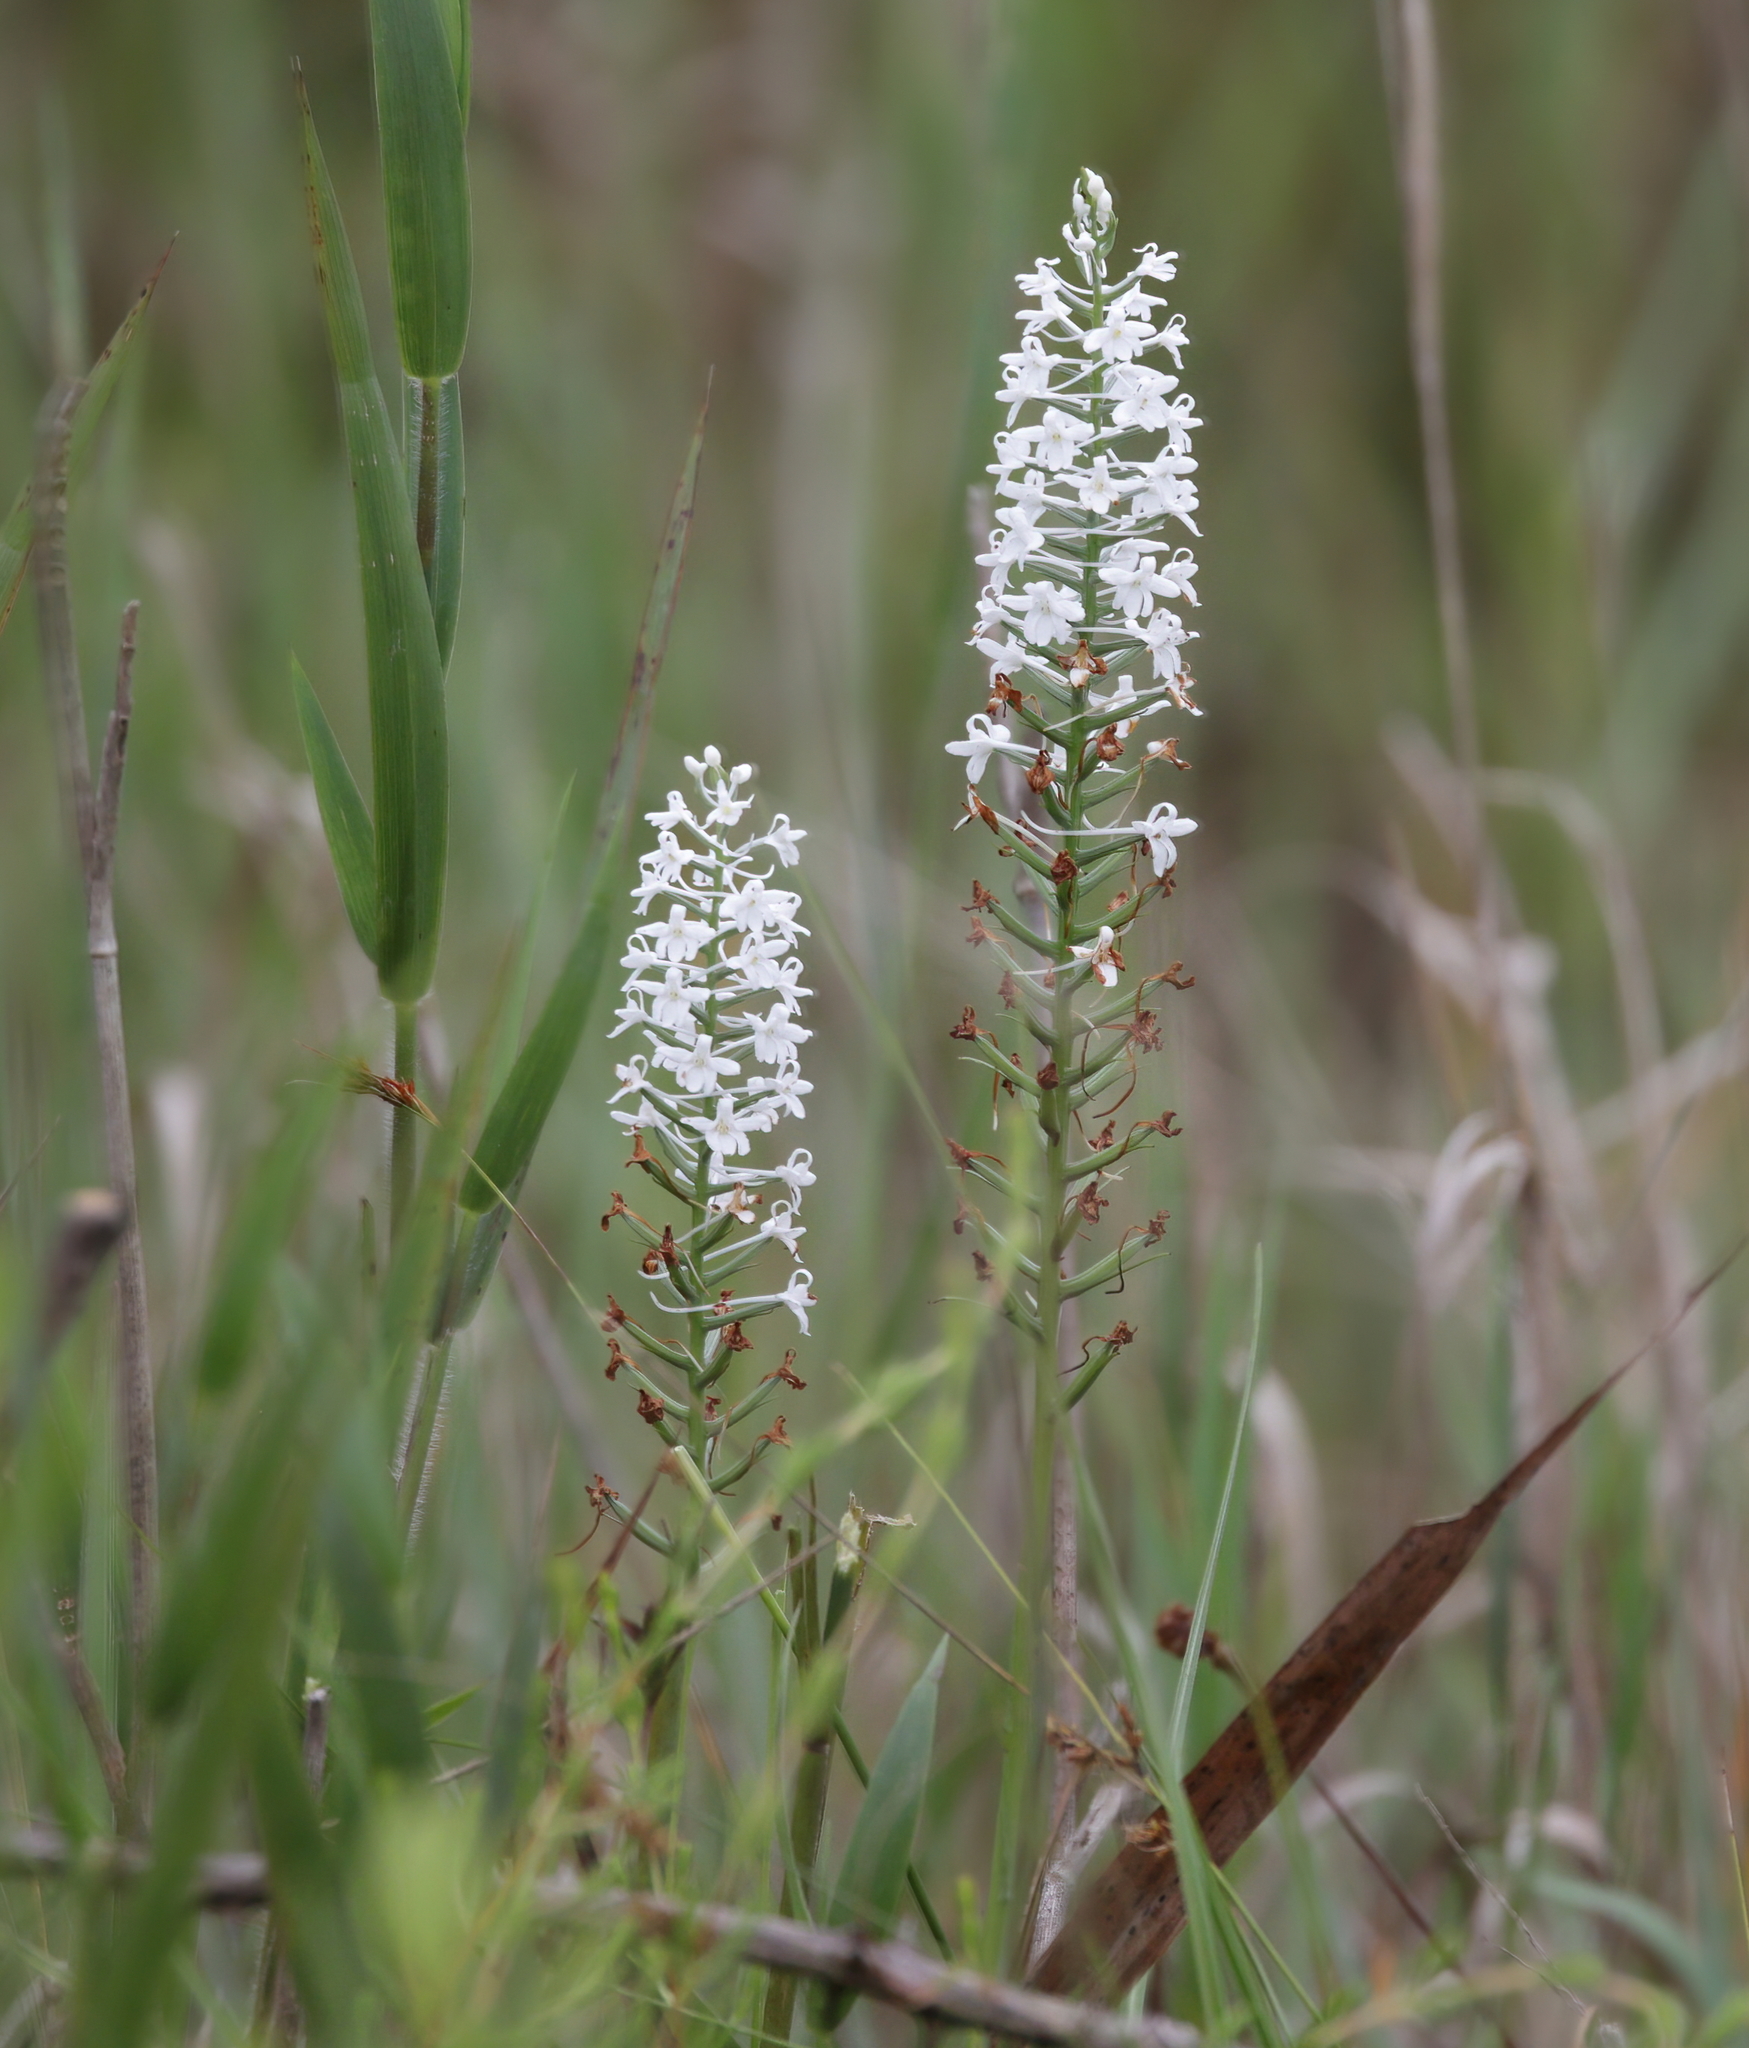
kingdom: Plantae
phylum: Tracheophyta
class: Liliopsida
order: Asparagales
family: Orchidaceae
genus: Platanthera
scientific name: Platanthera nivea
